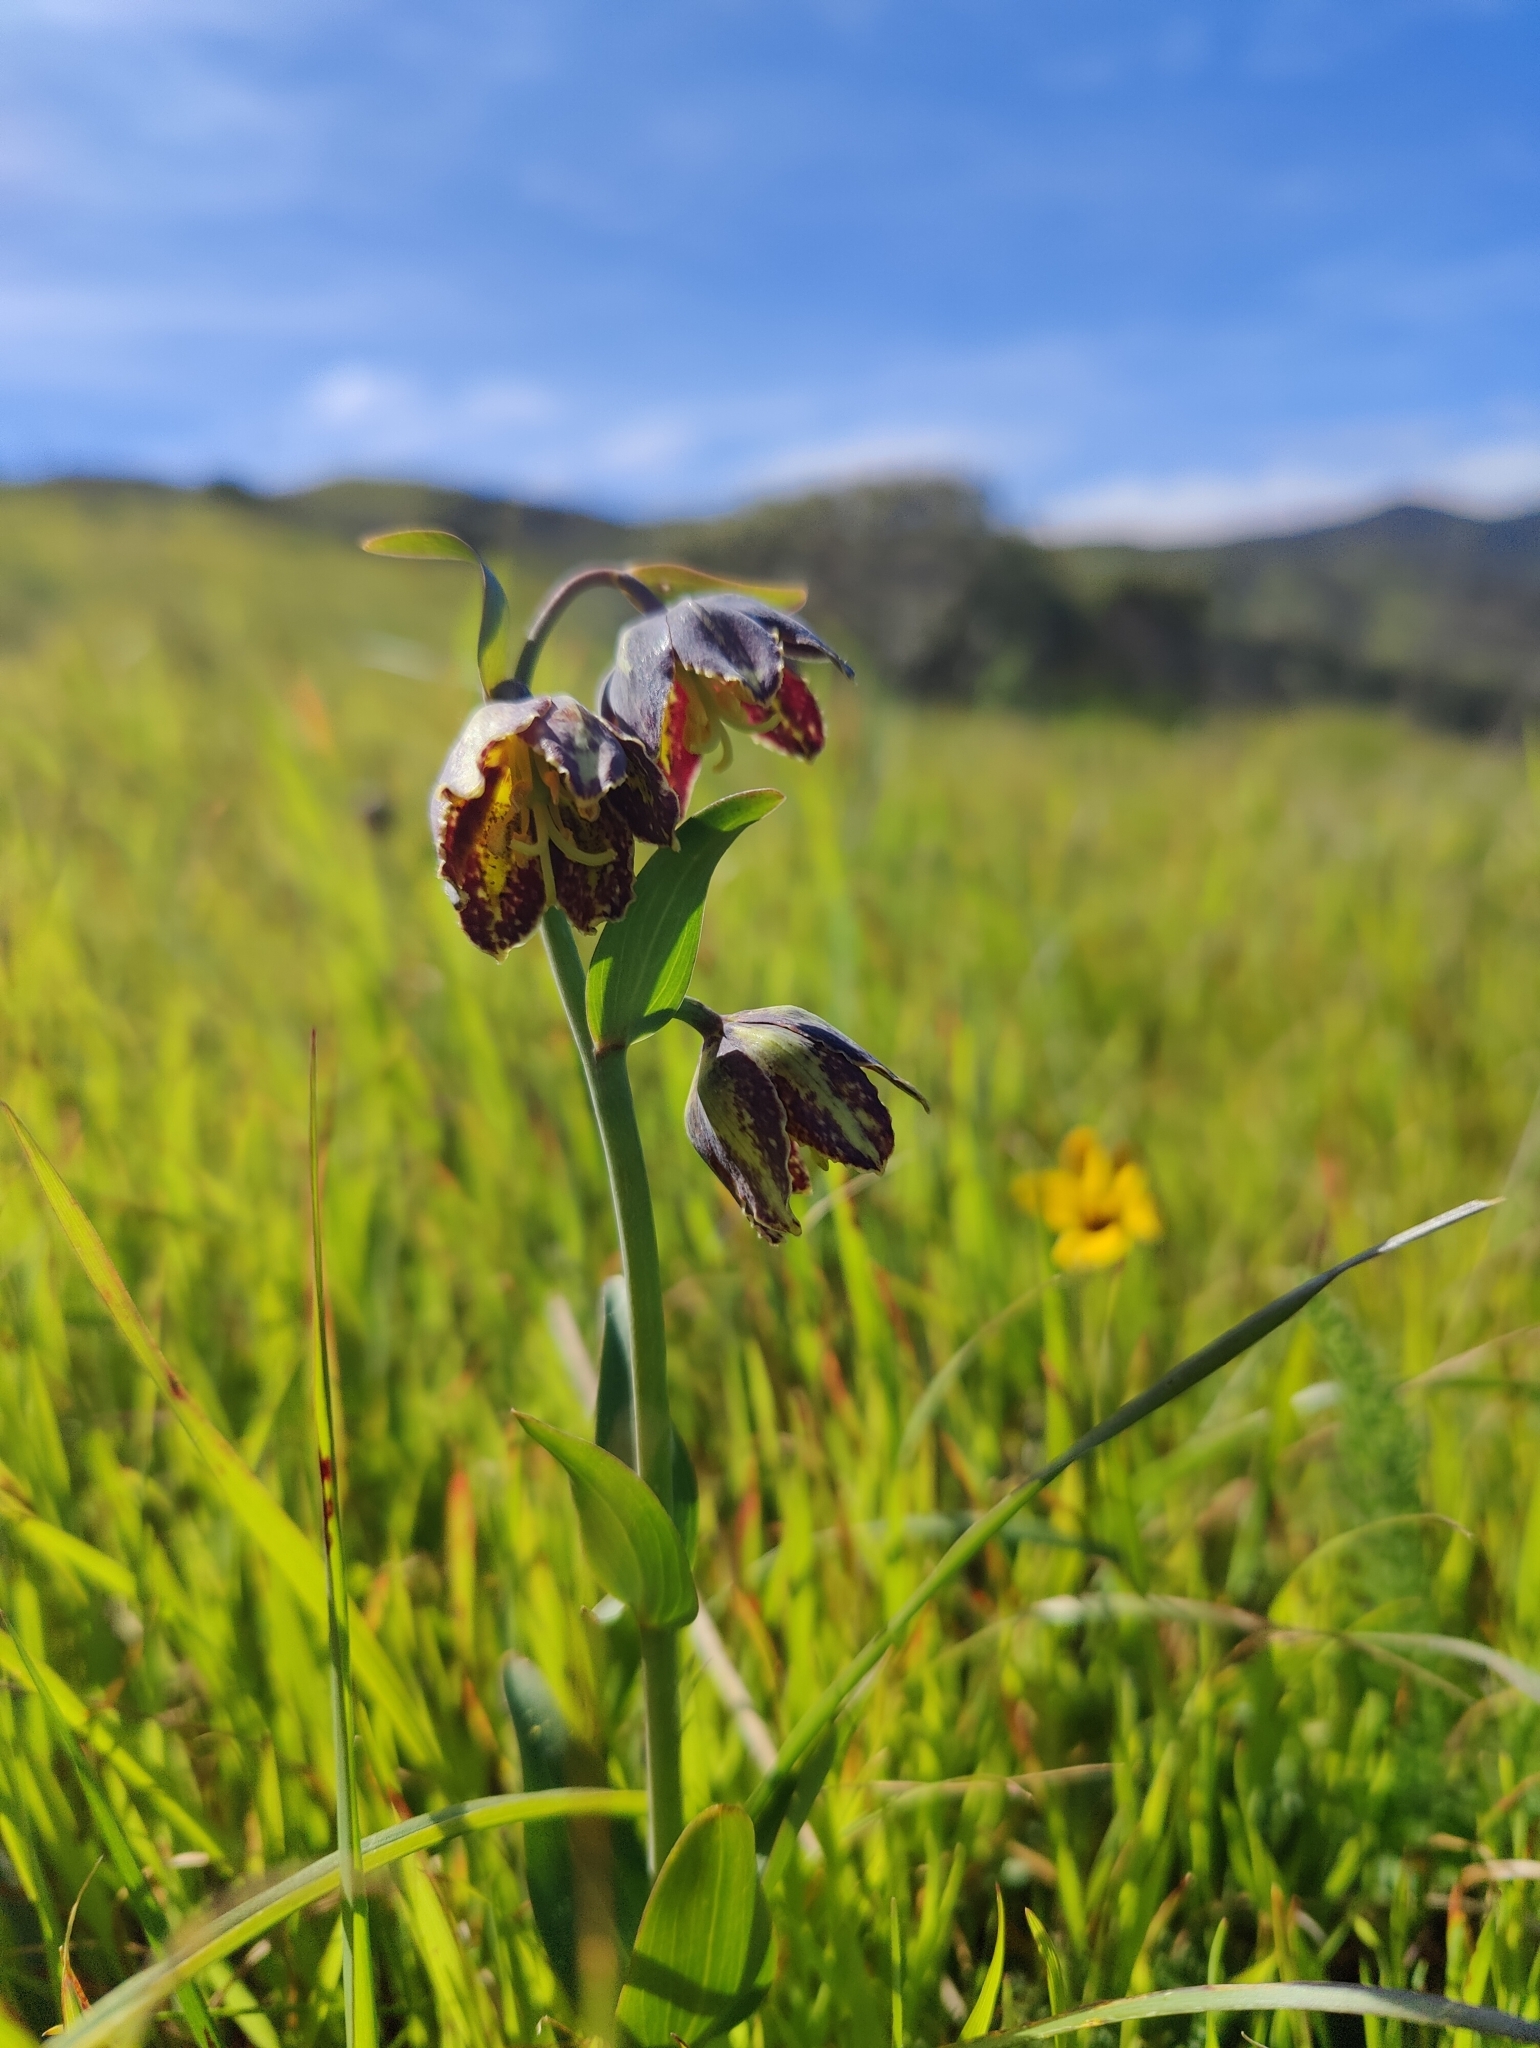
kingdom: Plantae
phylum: Tracheophyta
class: Liliopsida
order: Liliales
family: Liliaceae
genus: Fritillaria
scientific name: Fritillaria affinis
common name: Ojai fritillary
